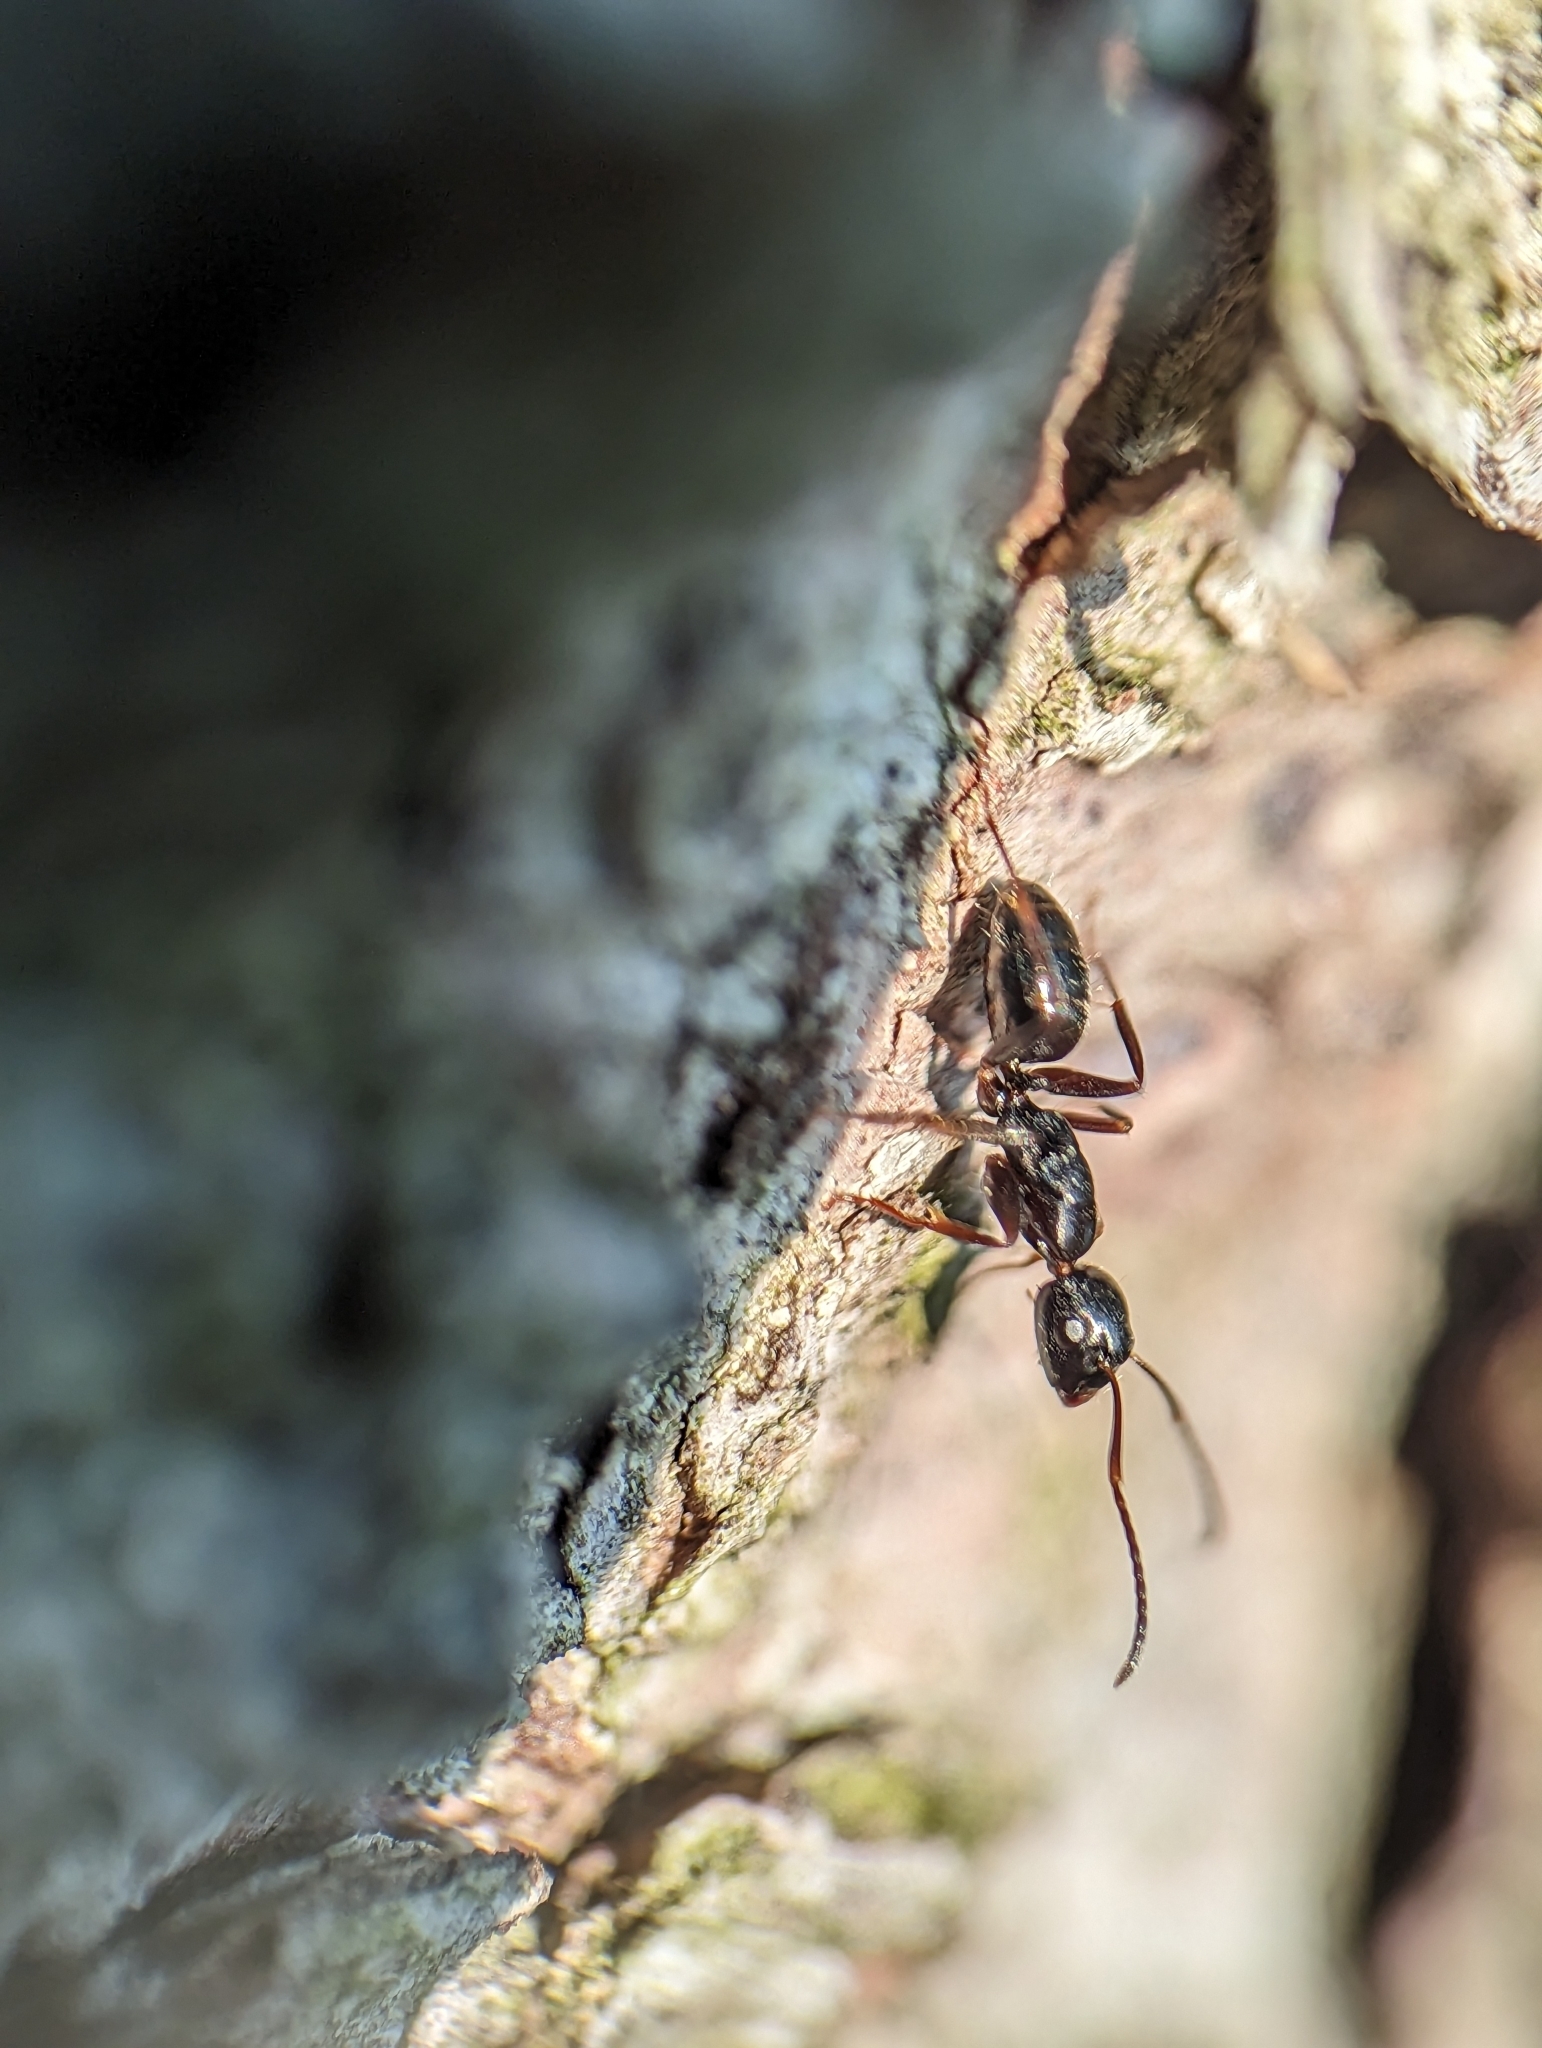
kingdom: Animalia
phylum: Arthropoda
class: Insecta
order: Hymenoptera
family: Formicidae
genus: Camponotus
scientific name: Camponotus nearcticus
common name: Smaller carpenter ant
